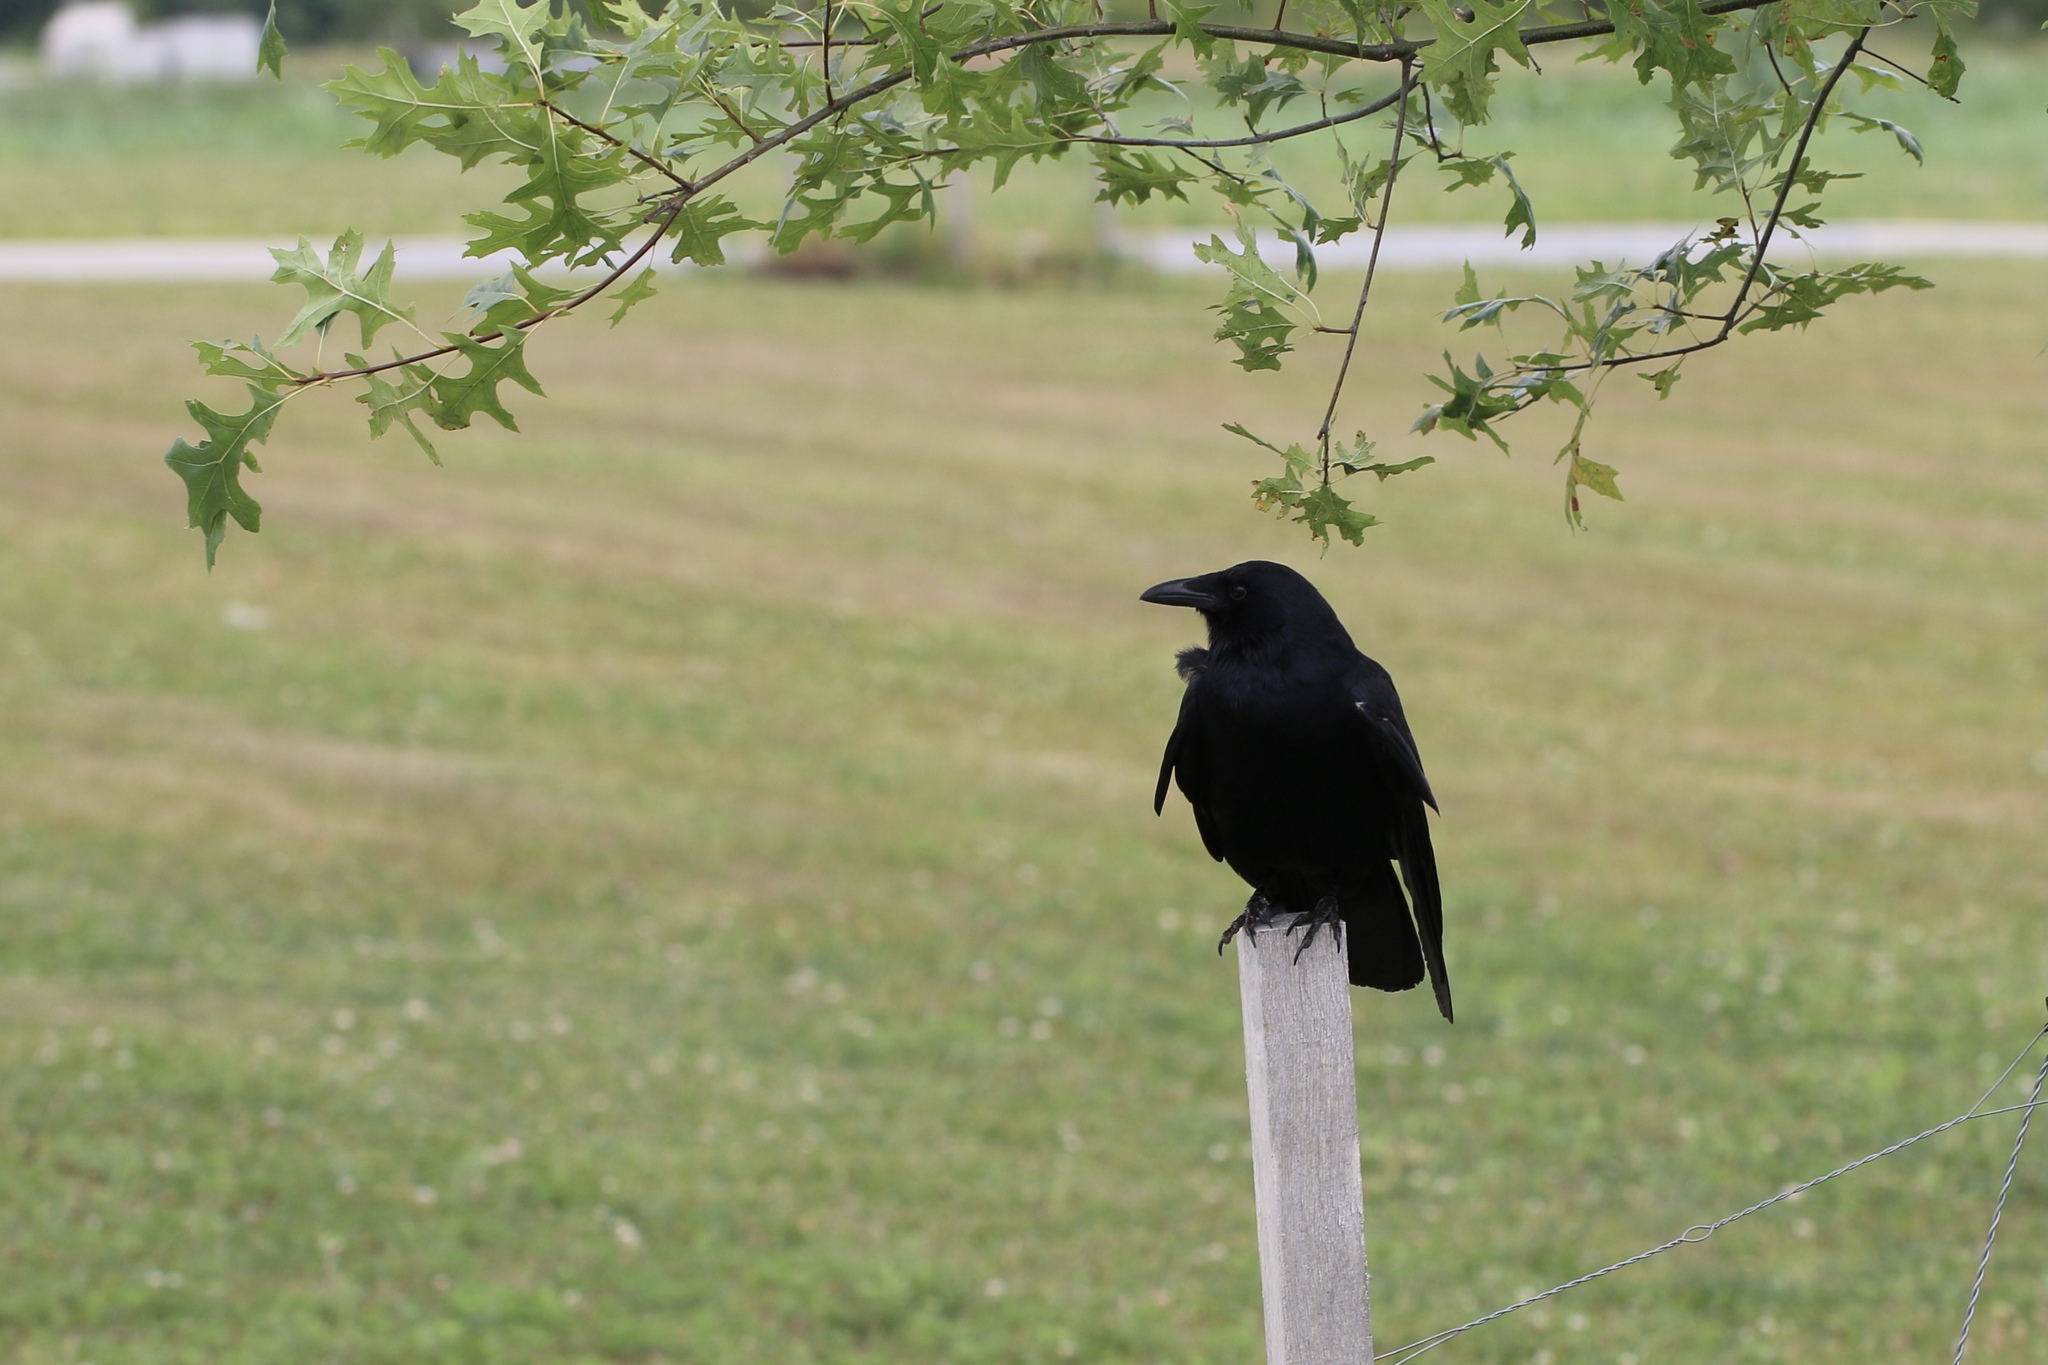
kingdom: Animalia
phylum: Chordata
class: Aves
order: Passeriformes
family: Corvidae
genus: Corvus
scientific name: Corvus ossifragus
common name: Fish crow
